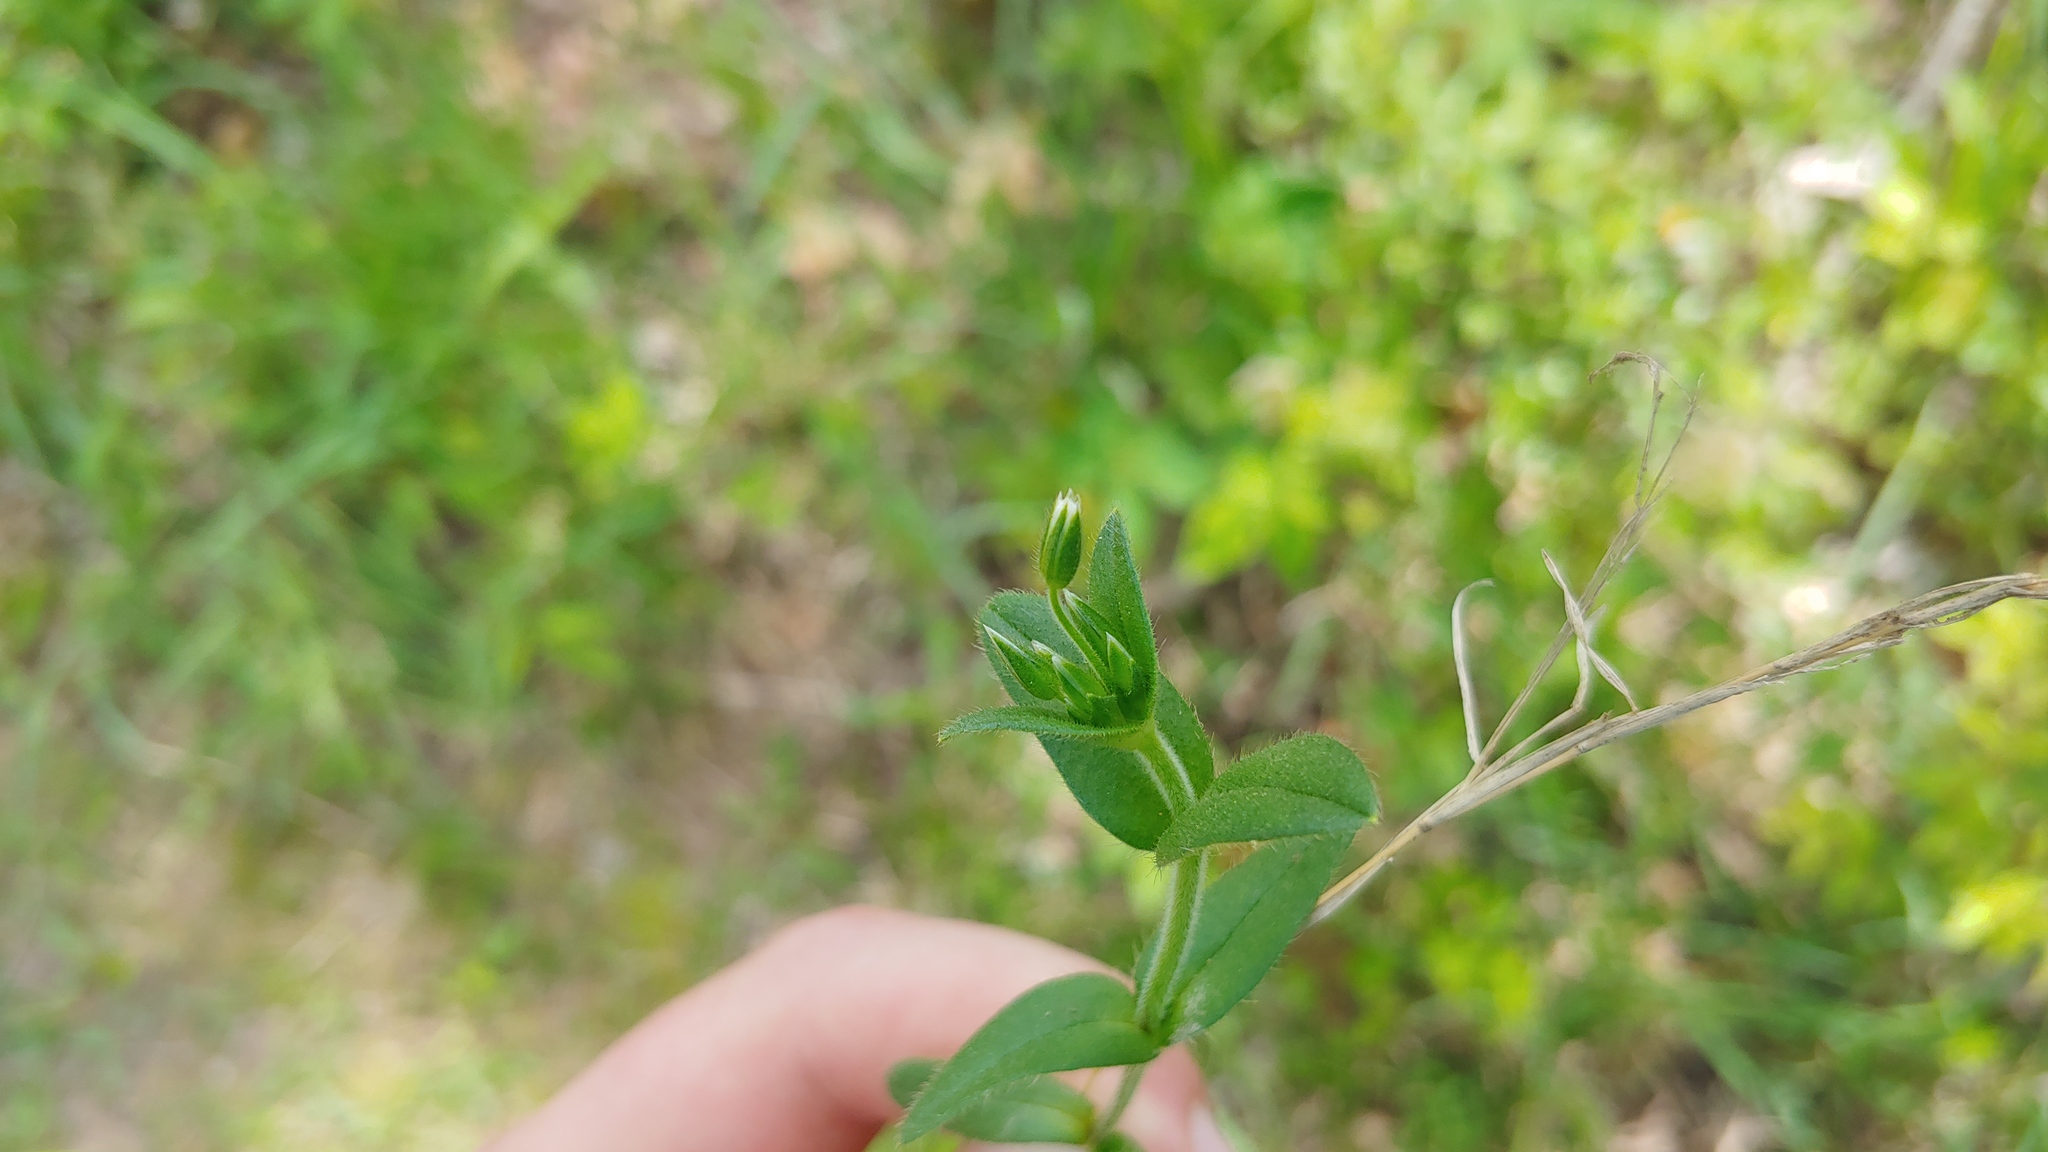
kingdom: Plantae
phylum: Tracheophyta
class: Magnoliopsida
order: Caryophyllales
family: Caryophyllaceae
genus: Cerastium
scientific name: Cerastium fontanum
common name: Common mouse-ear
